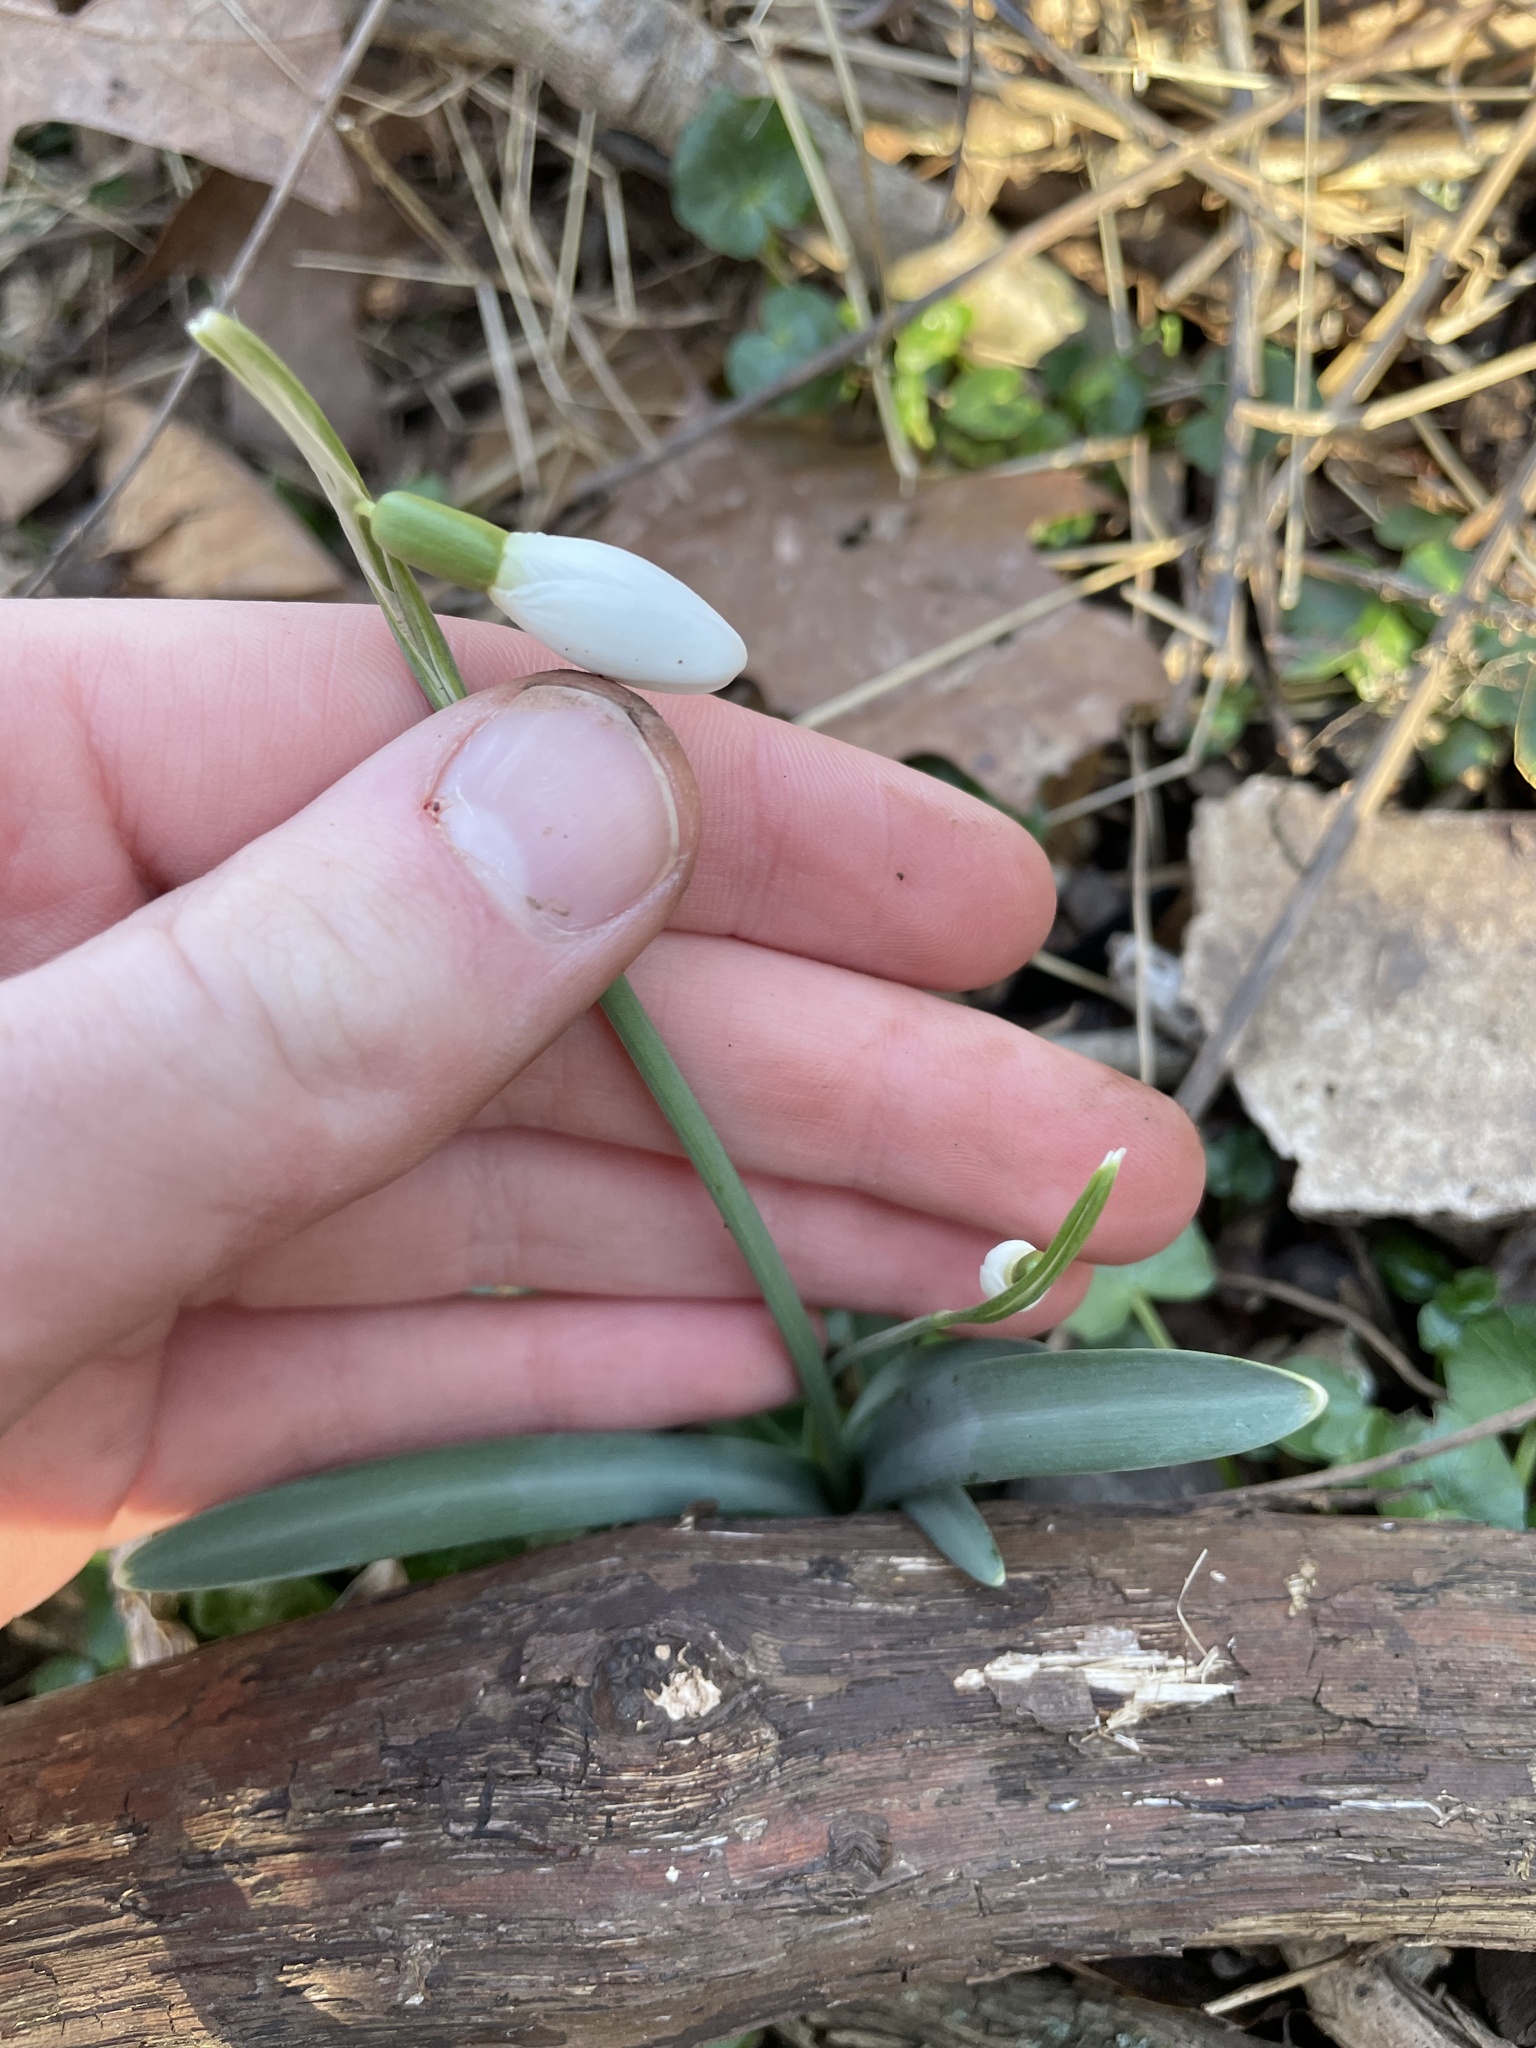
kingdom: Plantae
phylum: Tracheophyta
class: Liliopsida
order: Asparagales
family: Amaryllidaceae
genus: Galanthus
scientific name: Galanthus nivalis
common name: Snowdrop
